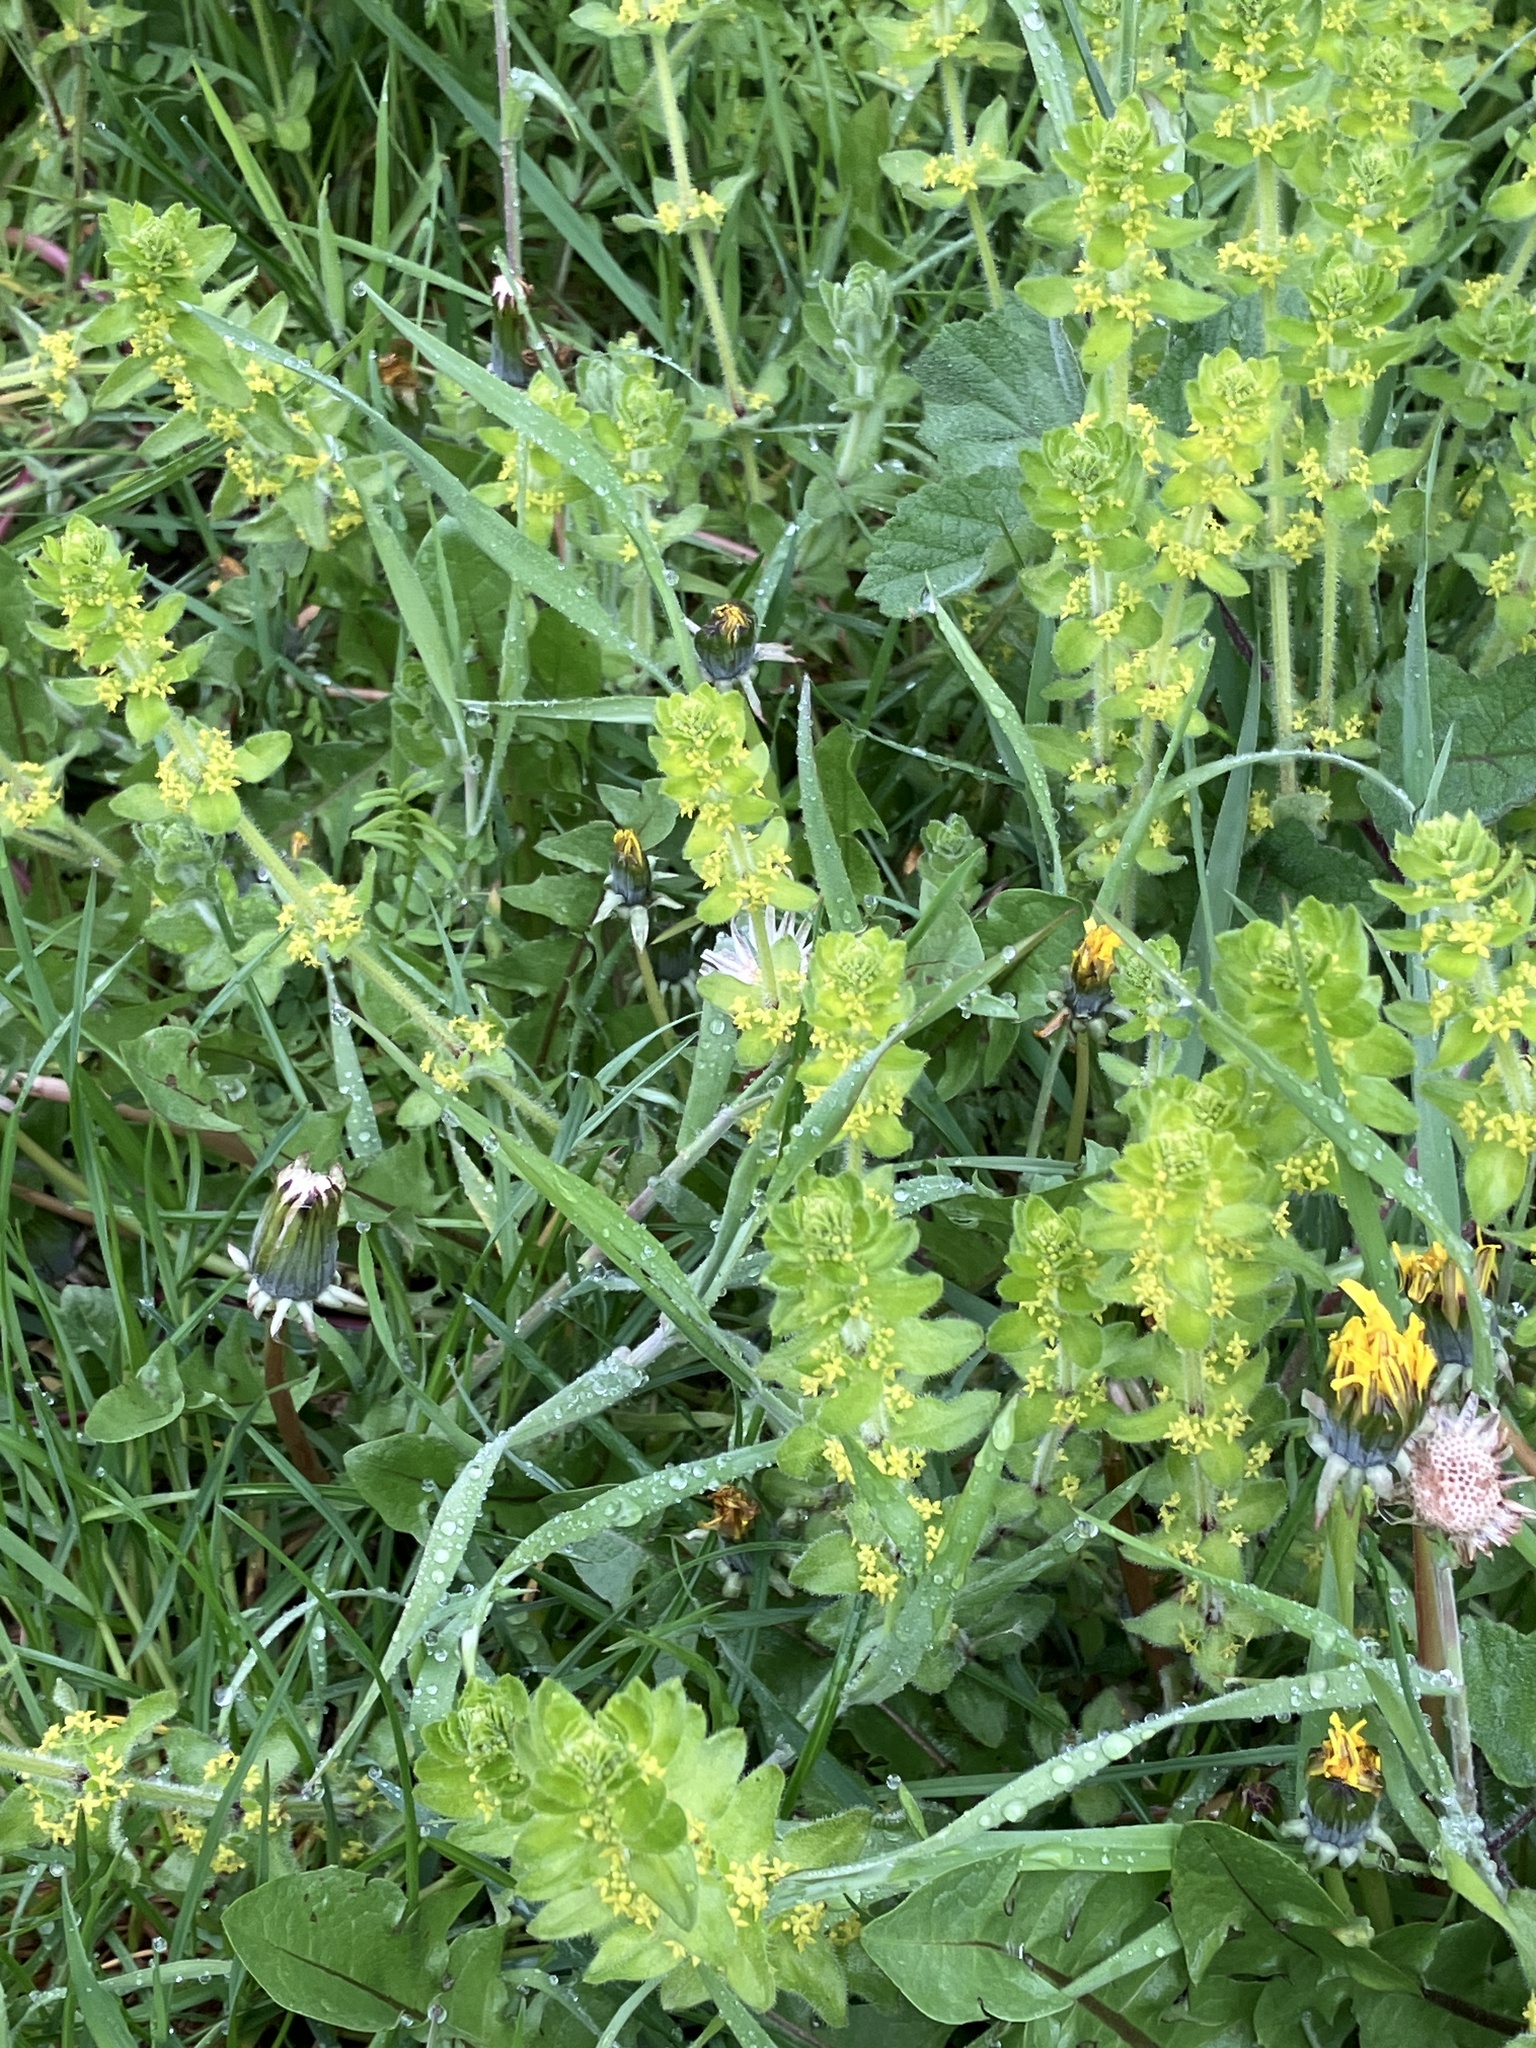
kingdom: Plantae
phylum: Tracheophyta
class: Magnoliopsida
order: Gentianales
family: Rubiaceae
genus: Cruciata
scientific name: Cruciata laevipes
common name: Crosswort
